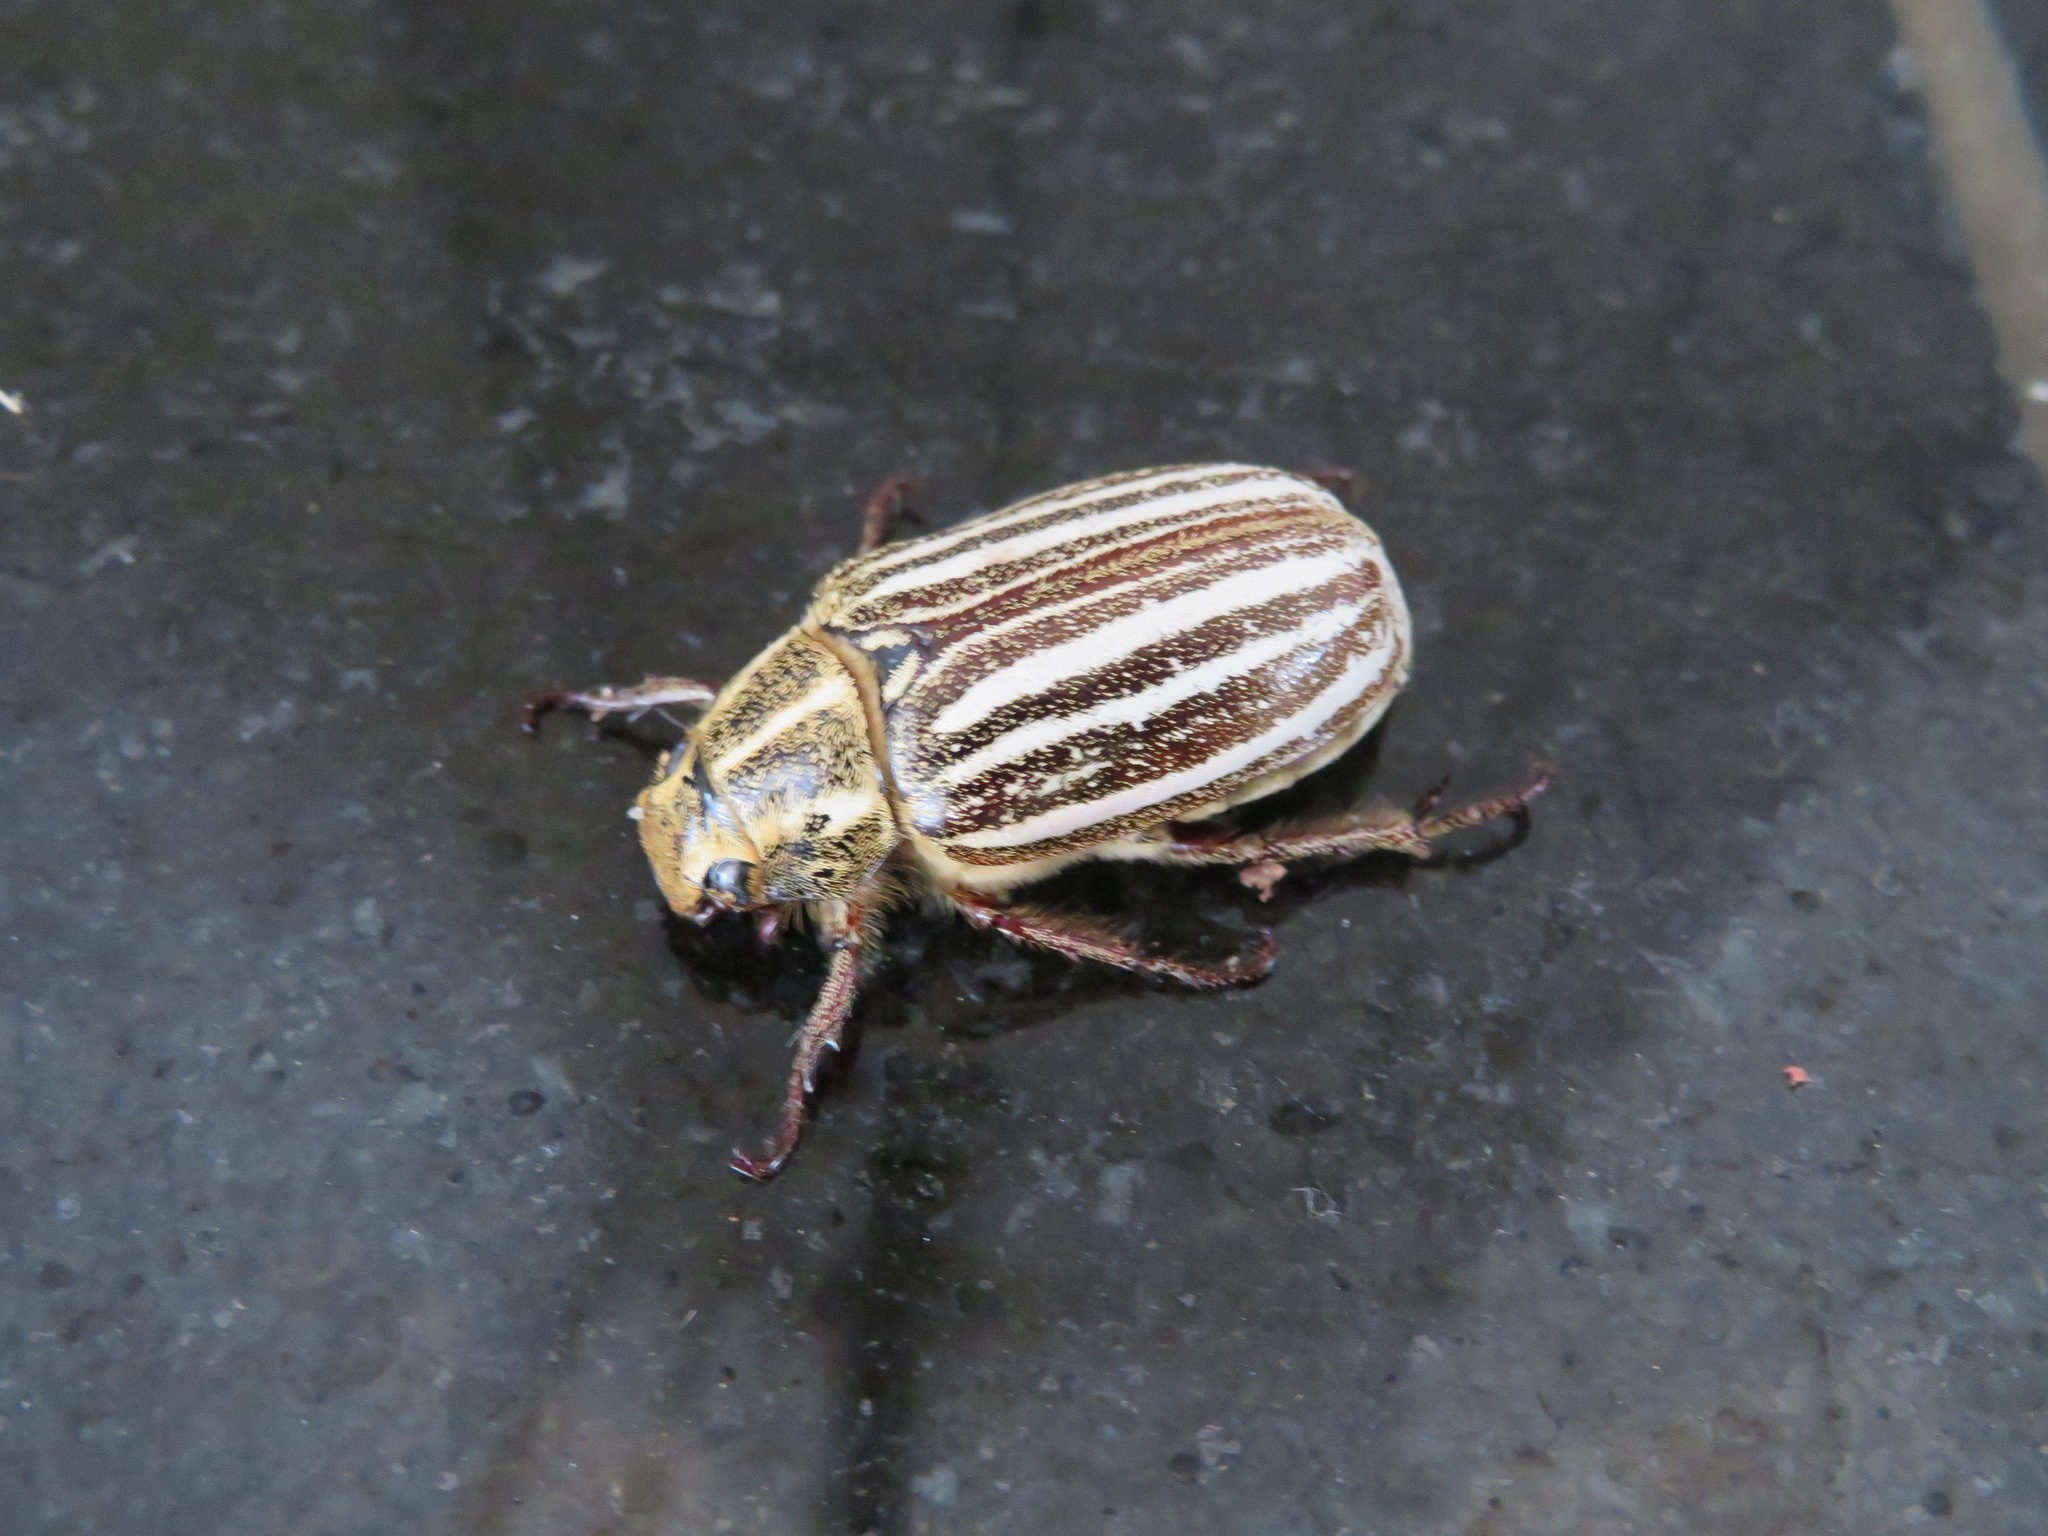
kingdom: Animalia
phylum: Arthropoda
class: Insecta
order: Coleoptera
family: Scarabaeidae
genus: Polyphylla
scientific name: Polyphylla albolineata
